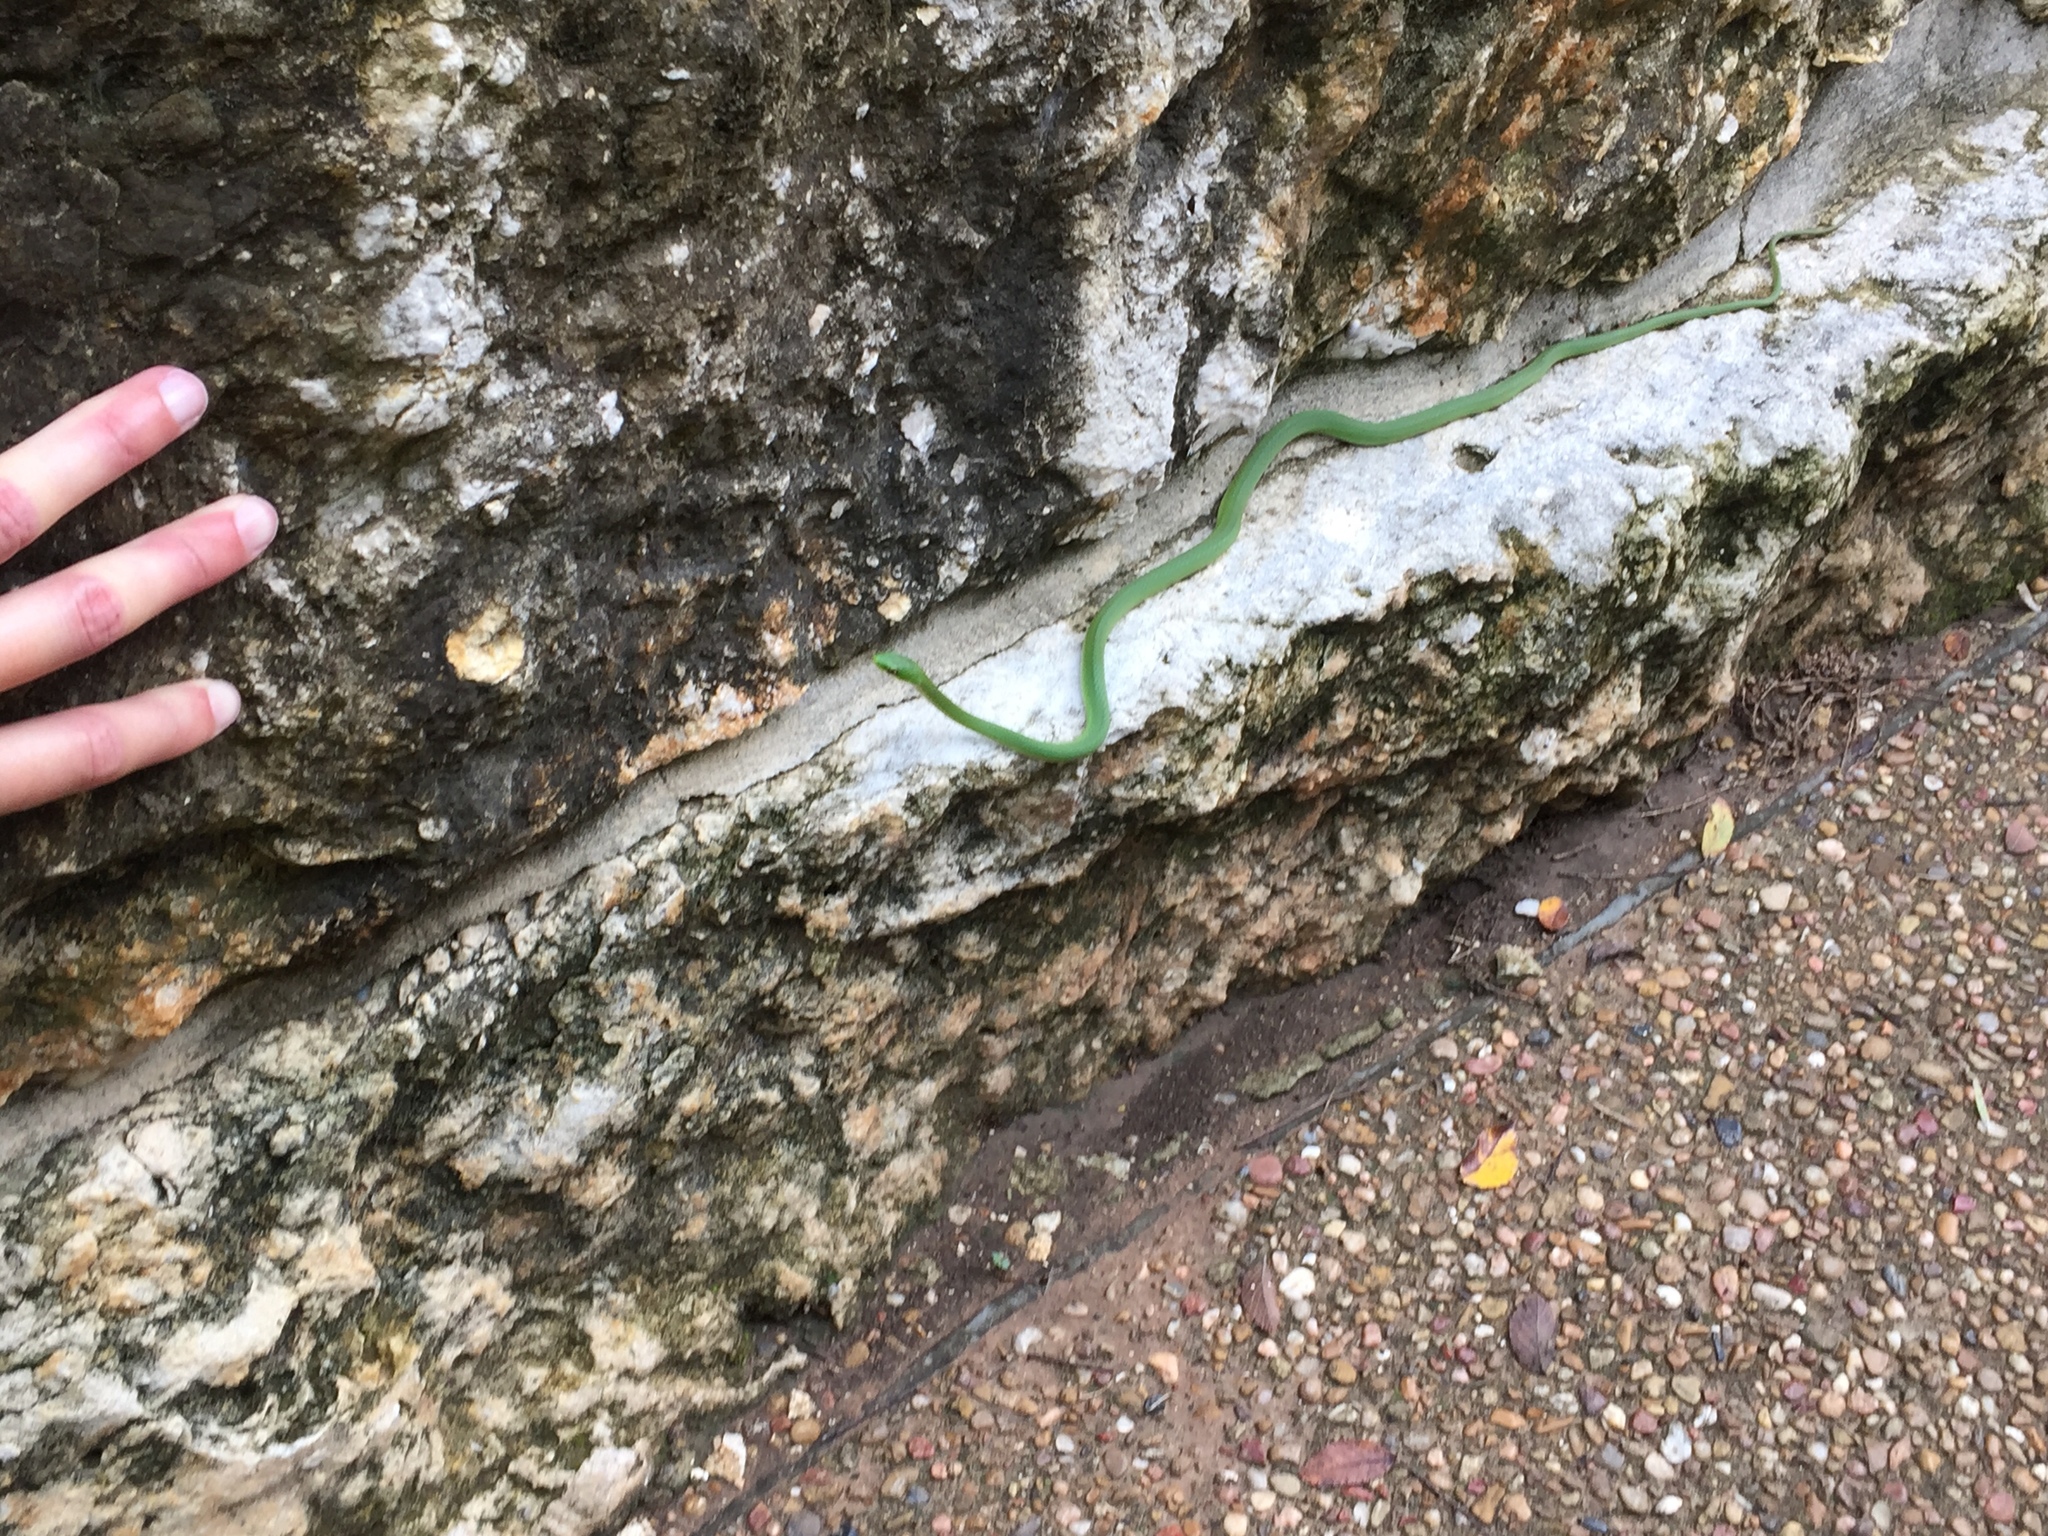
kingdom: Animalia
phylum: Chordata
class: Squamata
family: Colubridae
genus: Opheodrys
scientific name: Opheodrys aestivus
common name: Rough greensnake
